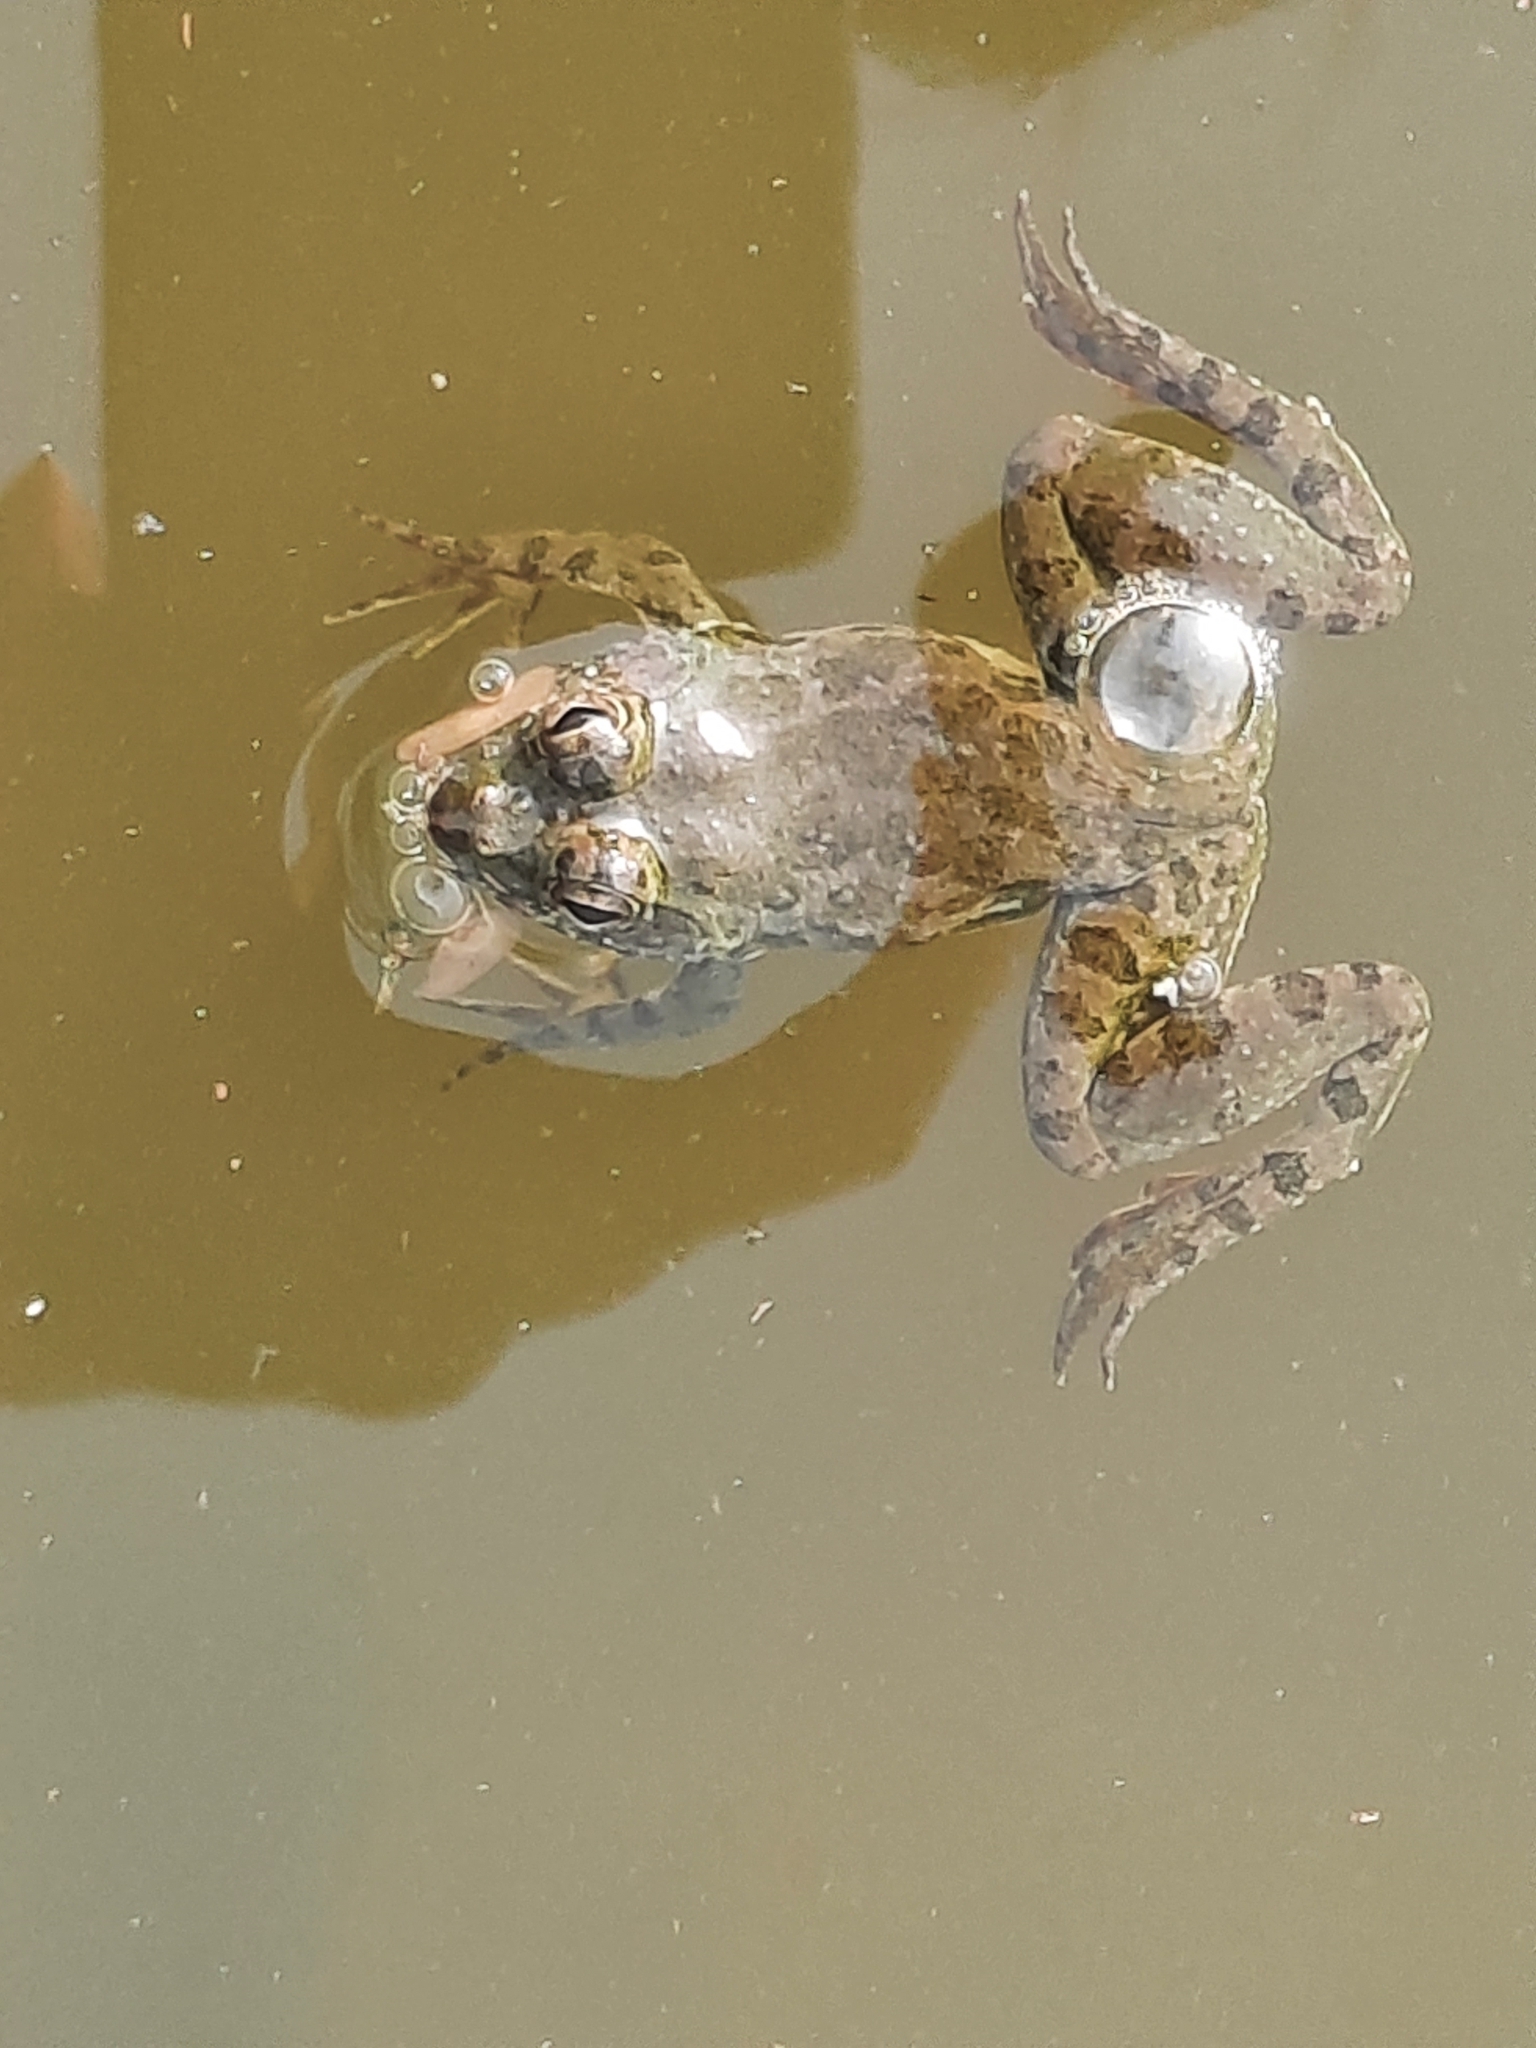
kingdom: Animalia
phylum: Chordata
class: Amphibia
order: Anura
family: Dicroglossidae
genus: Euphlyctis
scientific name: Euphlyctis cyanophlyctis
